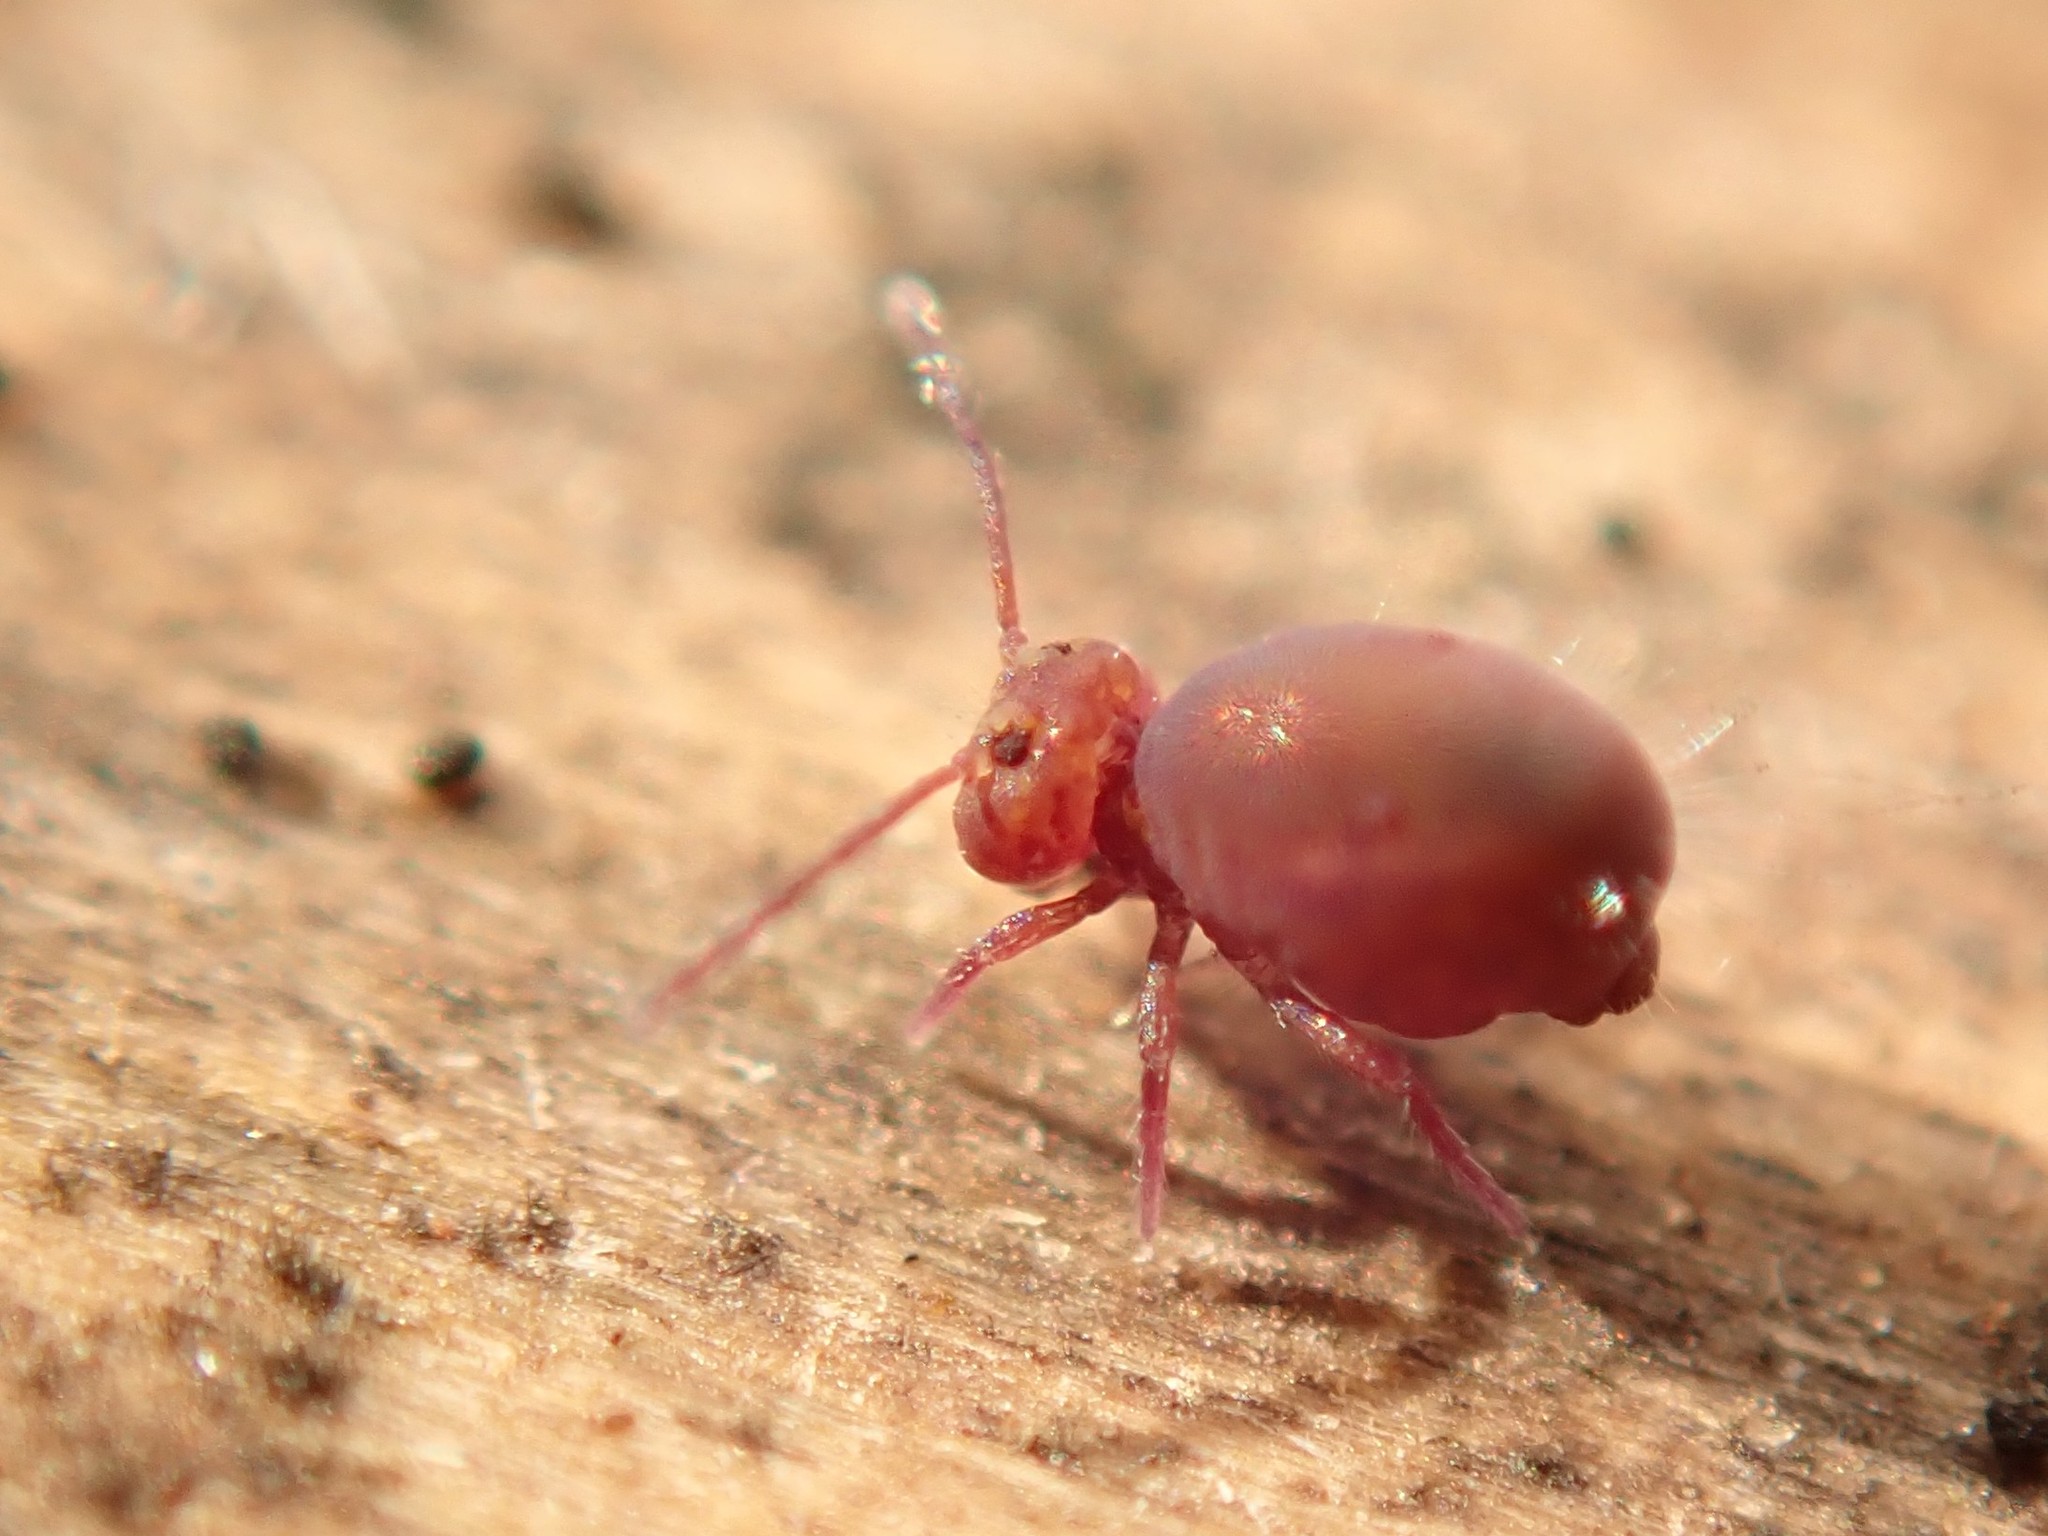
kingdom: Animalia
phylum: Arthropoda
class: Collembola
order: Symphypleona
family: Dicyrtomidae
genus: Dicyrtoma
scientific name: Dicyrtoma fusca
